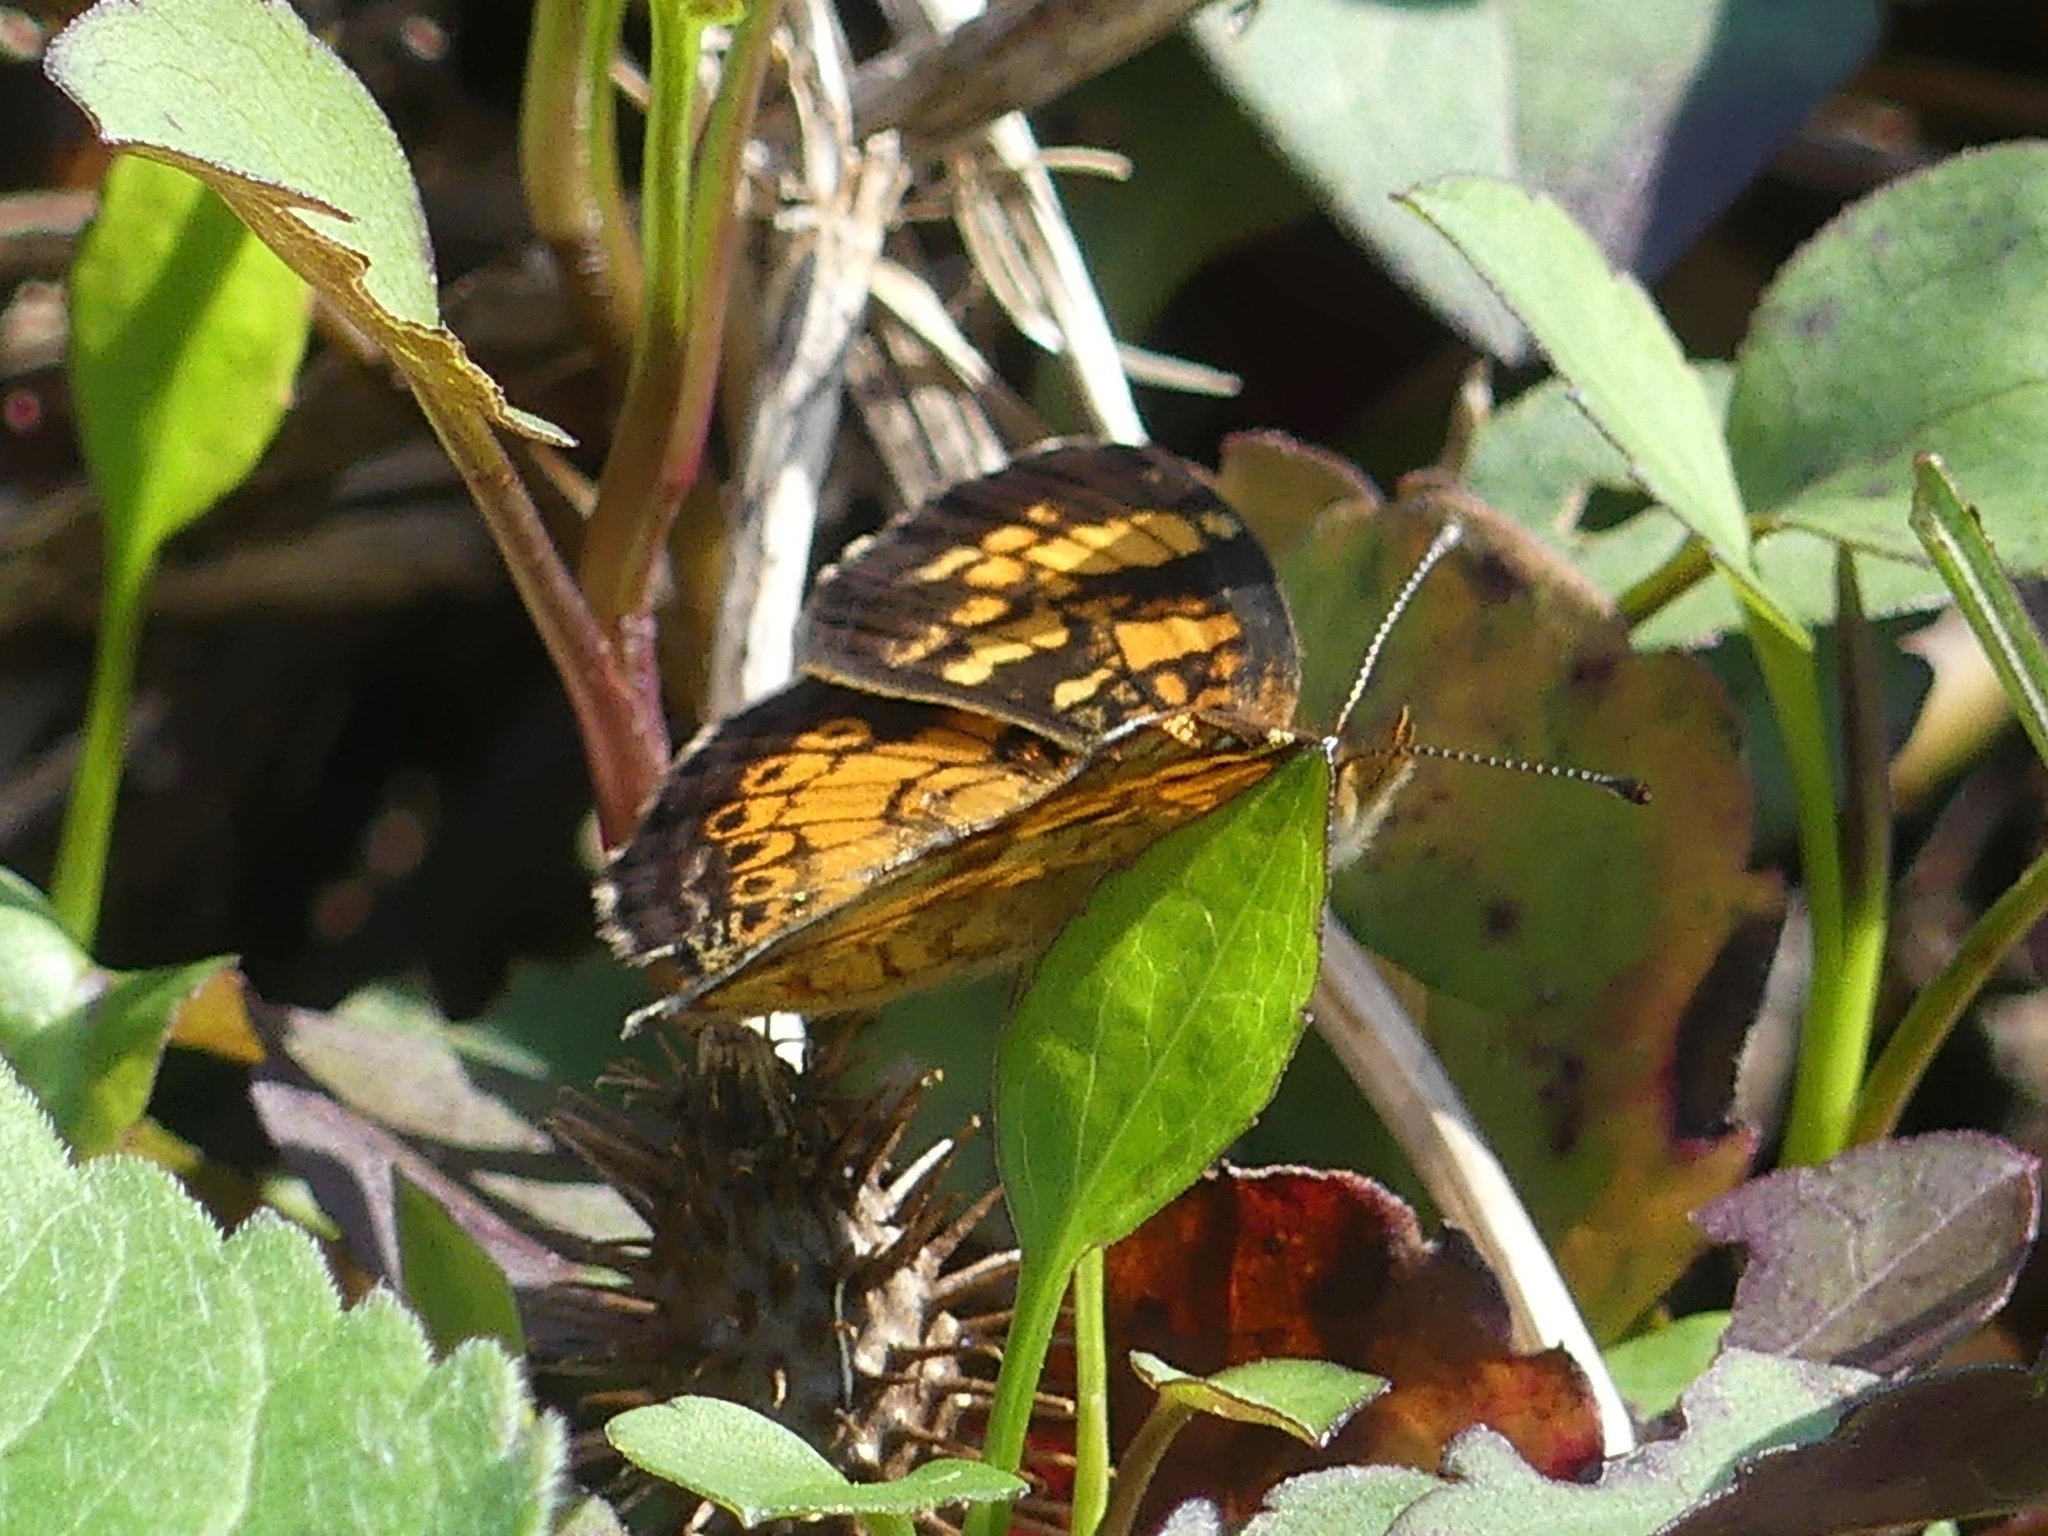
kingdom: Animalia
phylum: Arthropoda
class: Insecta
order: Lepidoptera
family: Nymphalidae
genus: Phyciodes
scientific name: Phyciodes tharos
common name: Pearl crescent
